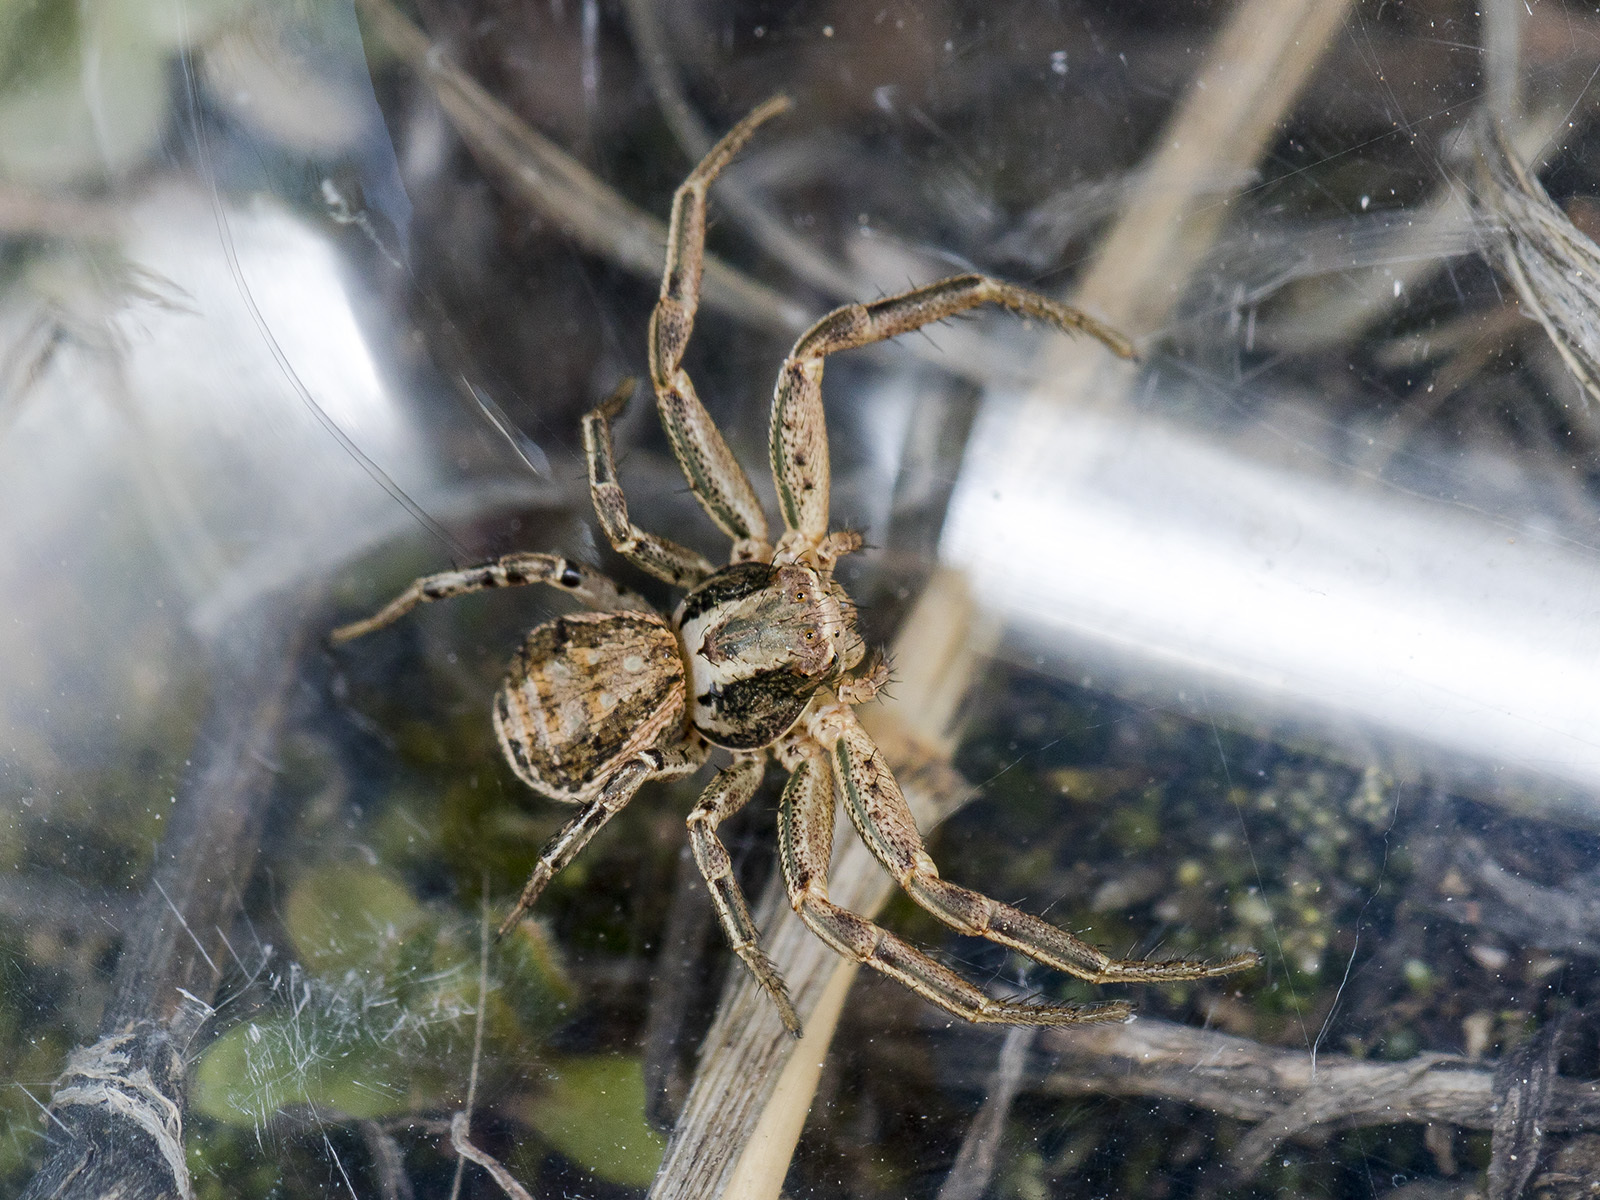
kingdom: Animalia
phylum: Arthropoda
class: Arachnida
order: Araneae
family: Thomisidae
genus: Xysticus
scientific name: Xysticus pseudocristatus
